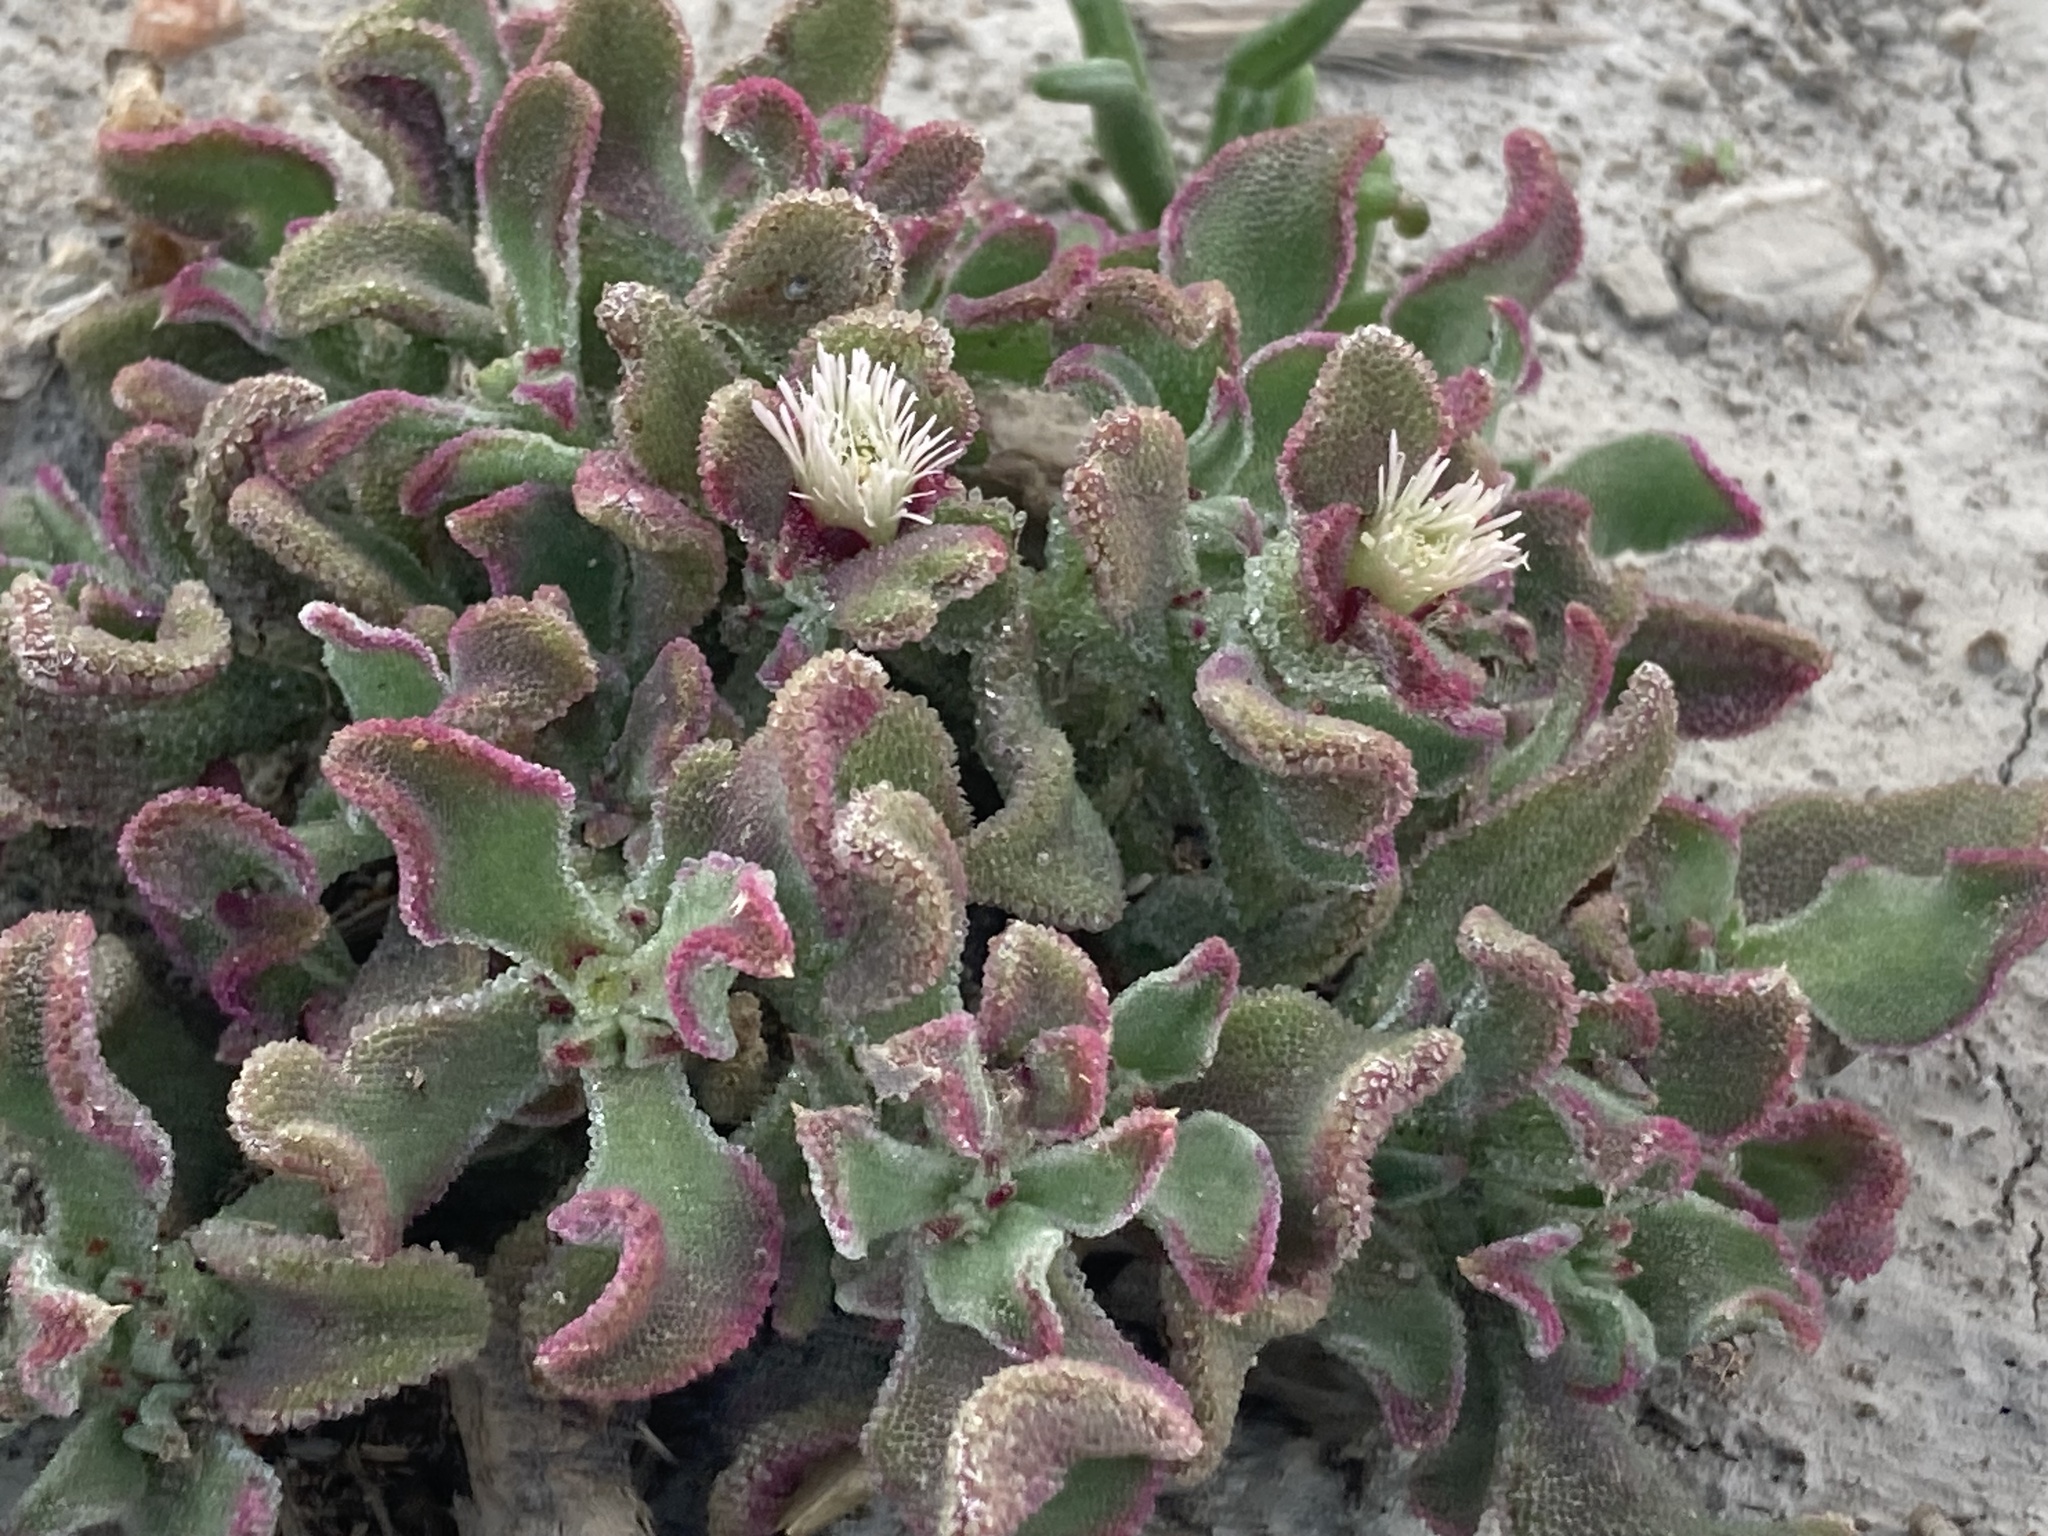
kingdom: Plantae
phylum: Tracheophyta
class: Magnoliopsida
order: Caryophyllales
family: Aizoaceae
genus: Mesembryanthemum
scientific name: Mesembryanthemum crystallinum
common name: Common iceplant
